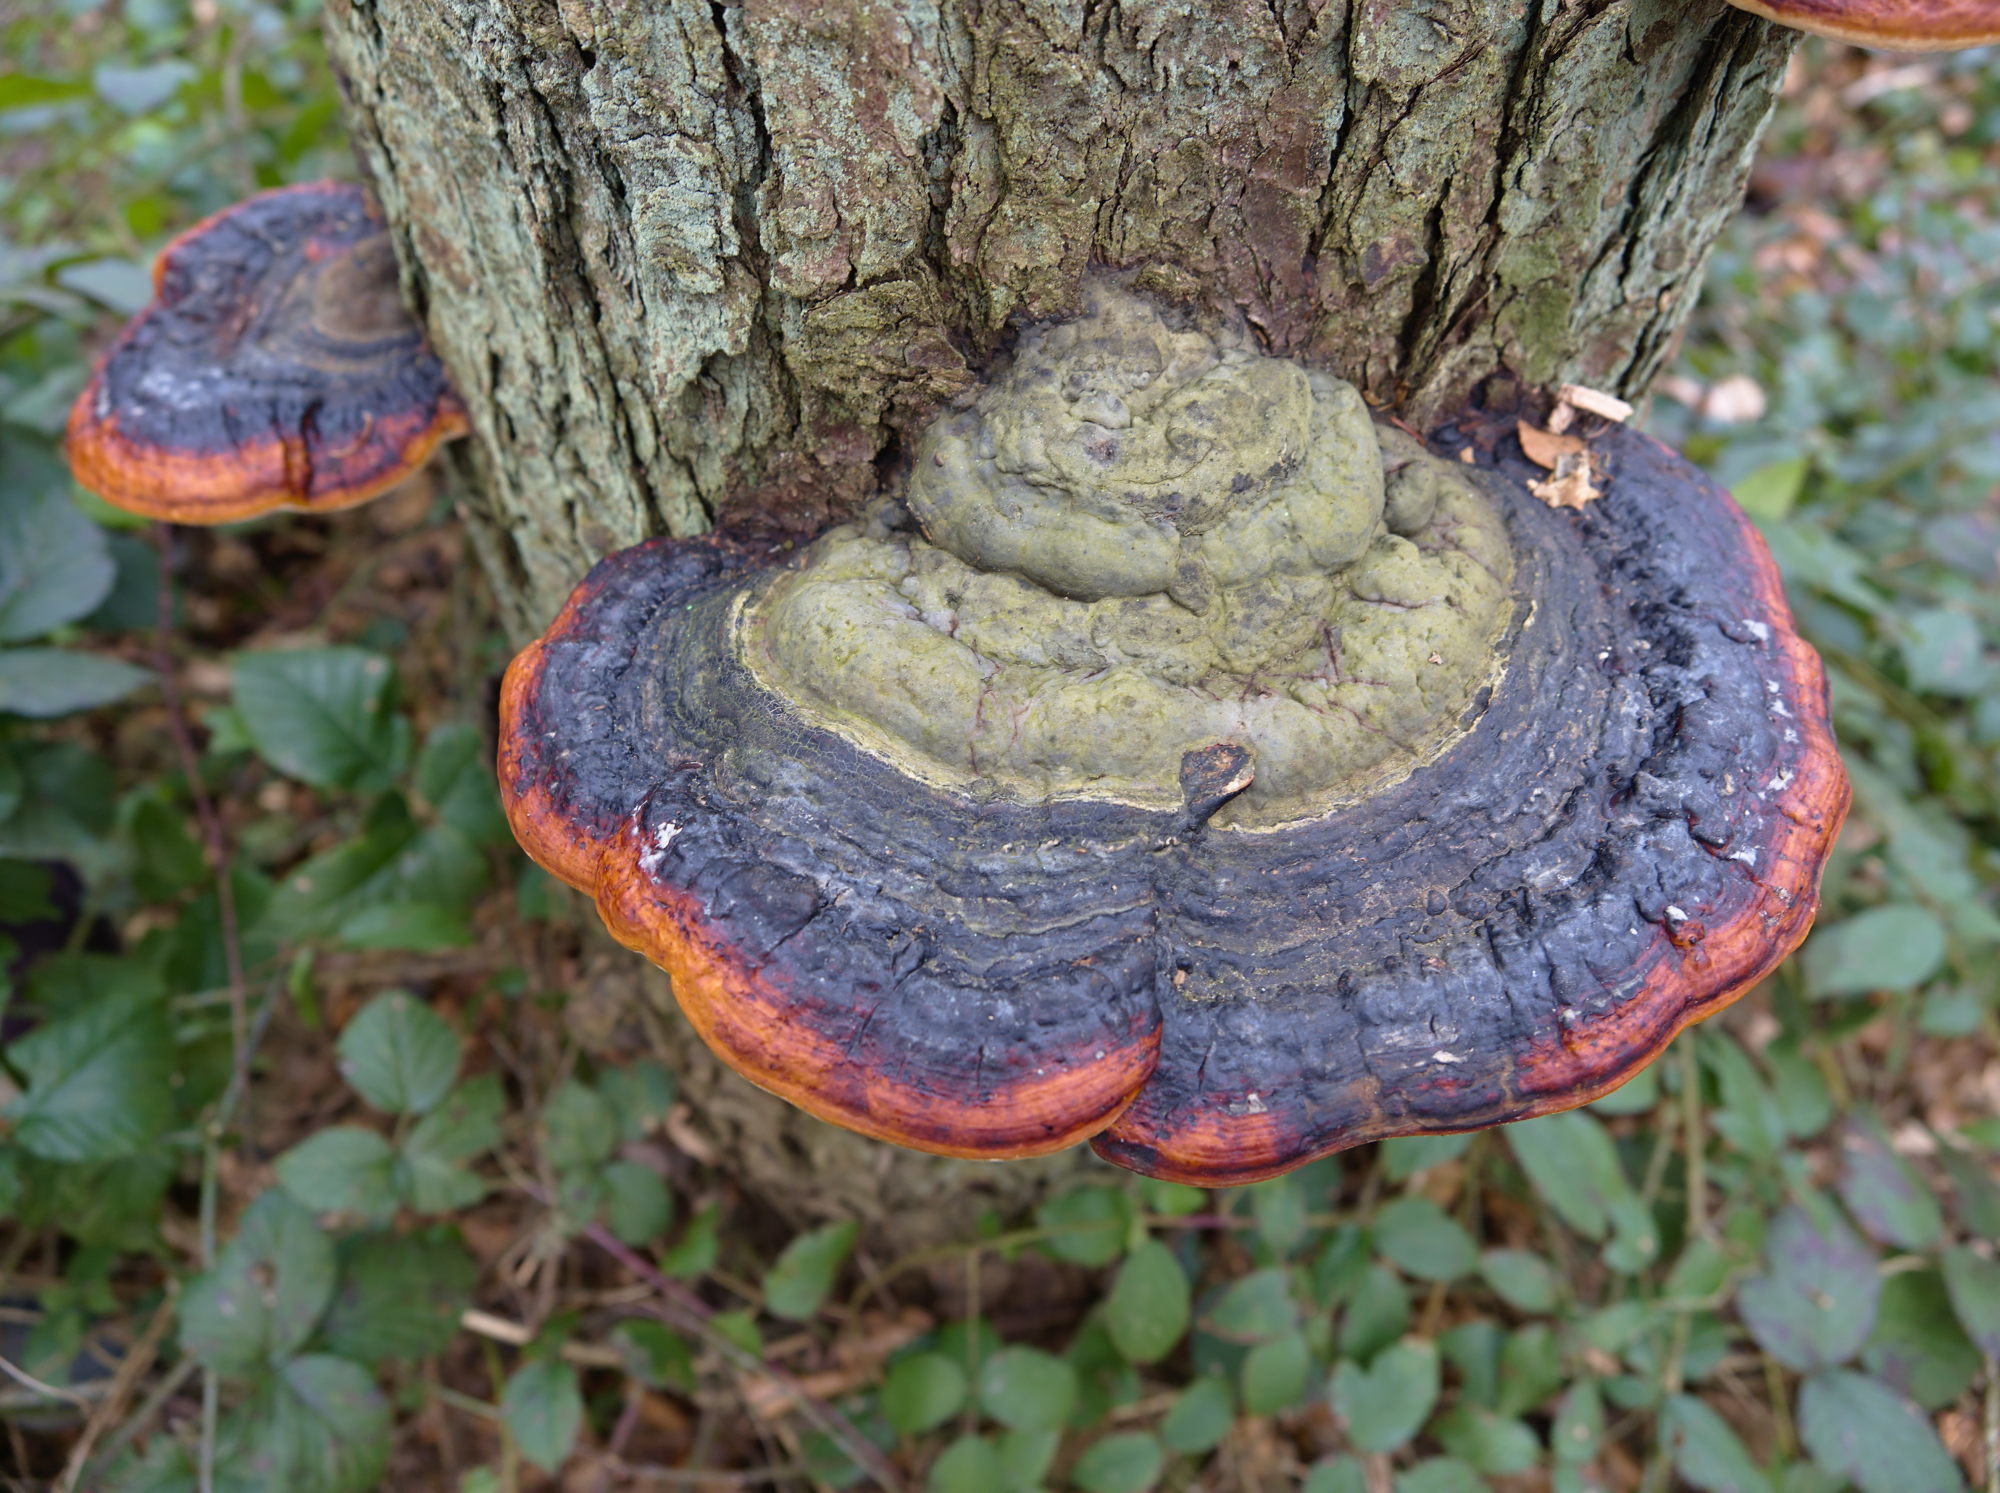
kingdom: Fungi
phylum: Basidiomycota
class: Agaricomycetes
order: Polyporales
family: Fomitopsidaceae
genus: Fomitopsis
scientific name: Fomitopsis pinicola
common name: Red-belted bracket
